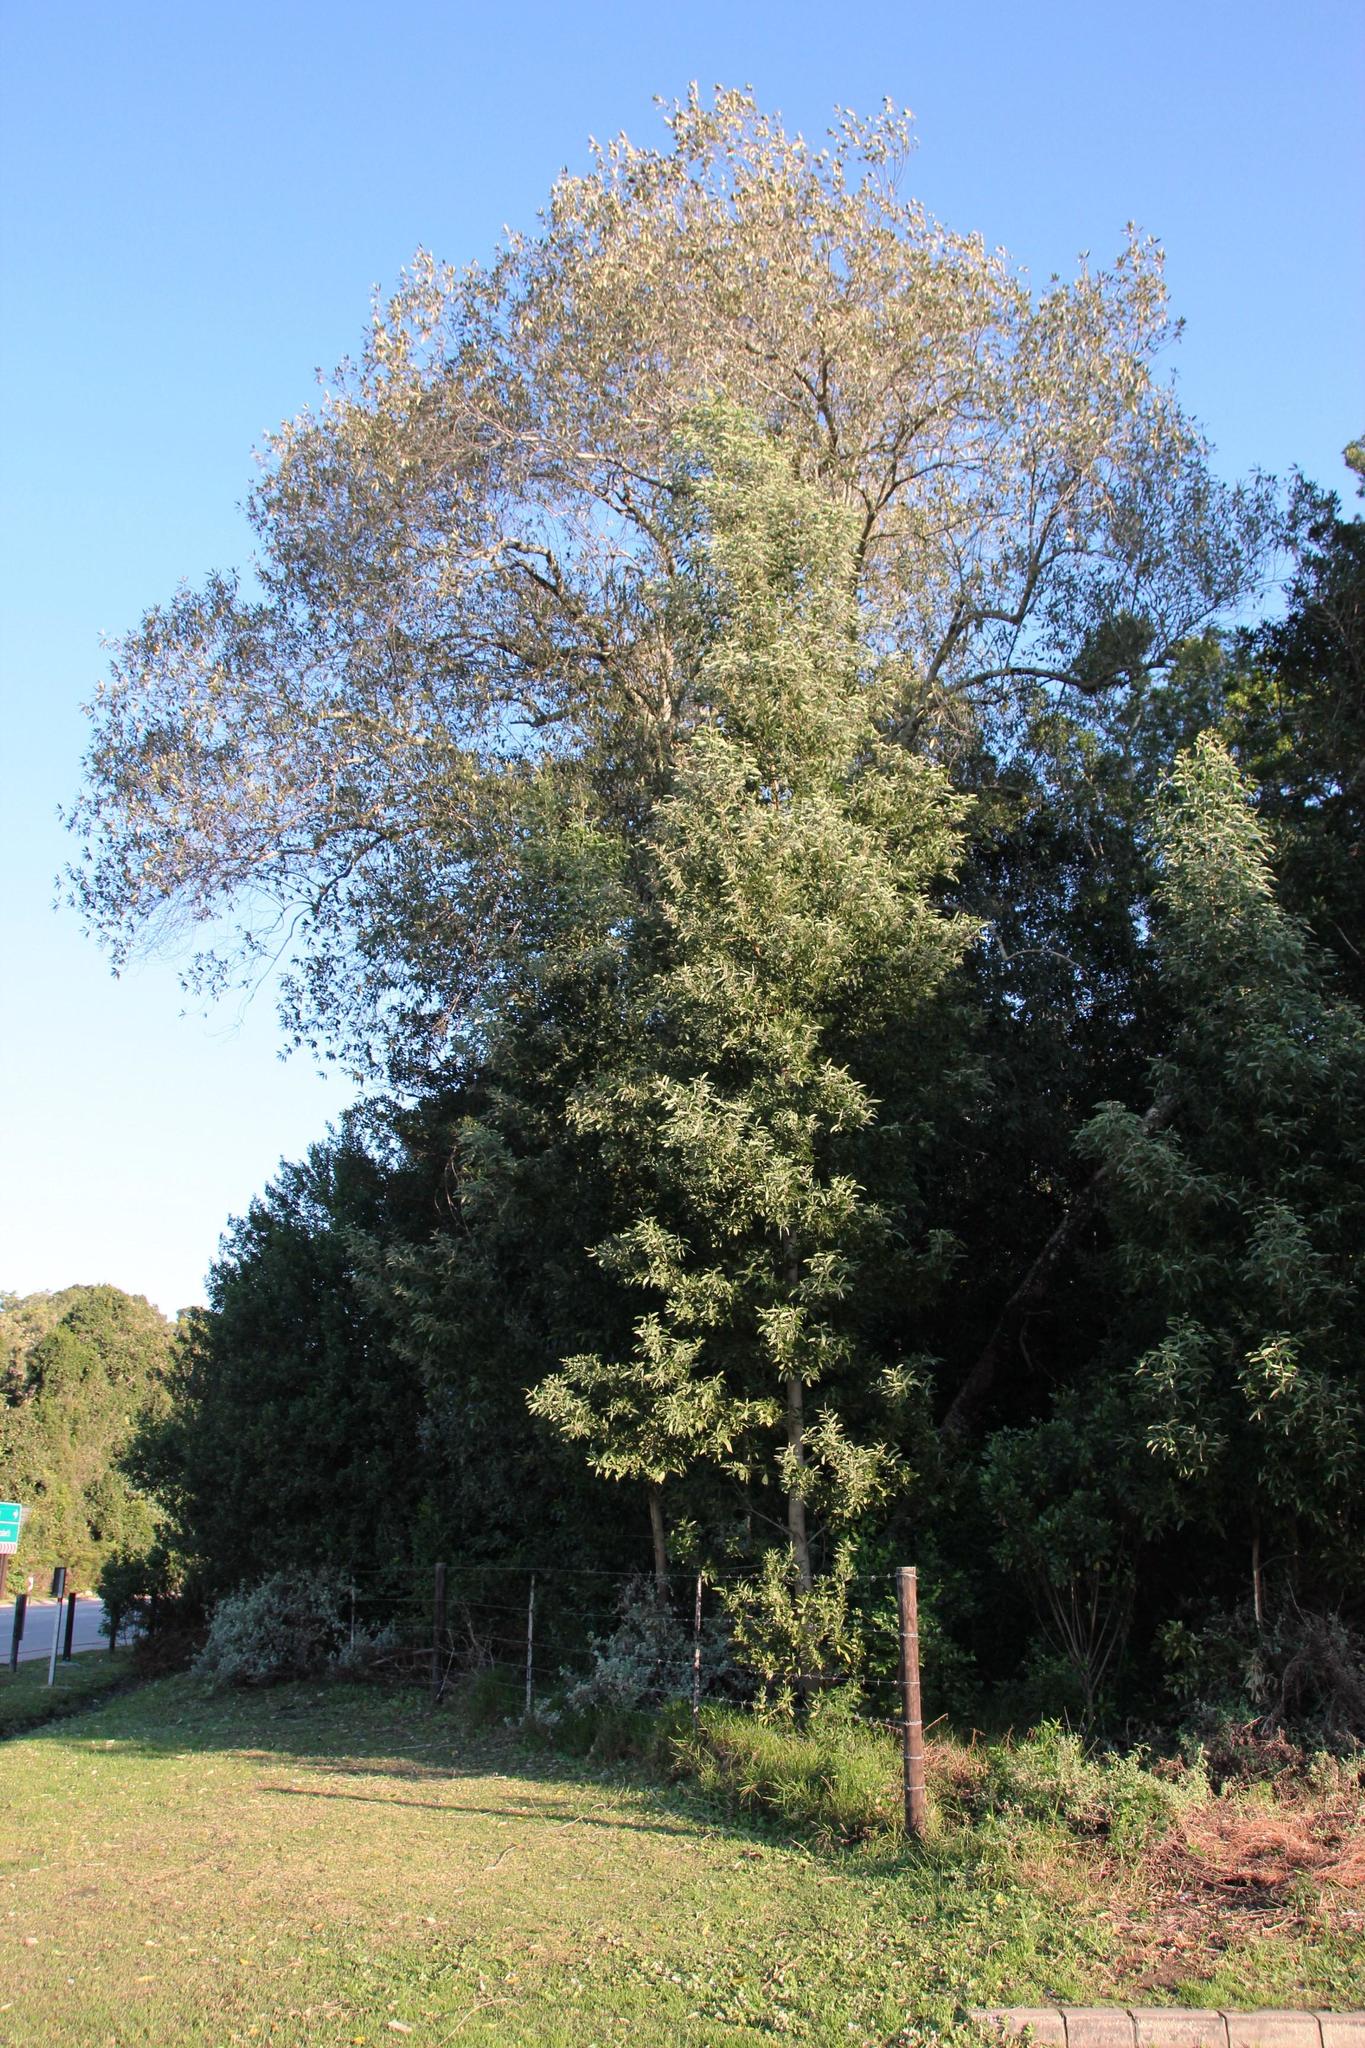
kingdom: Plantae
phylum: Tracheophyta
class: Magnoliopsida
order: Fabales
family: Fabaceae
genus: Acacia
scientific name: Acacia melanoxylon
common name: Blackwood
